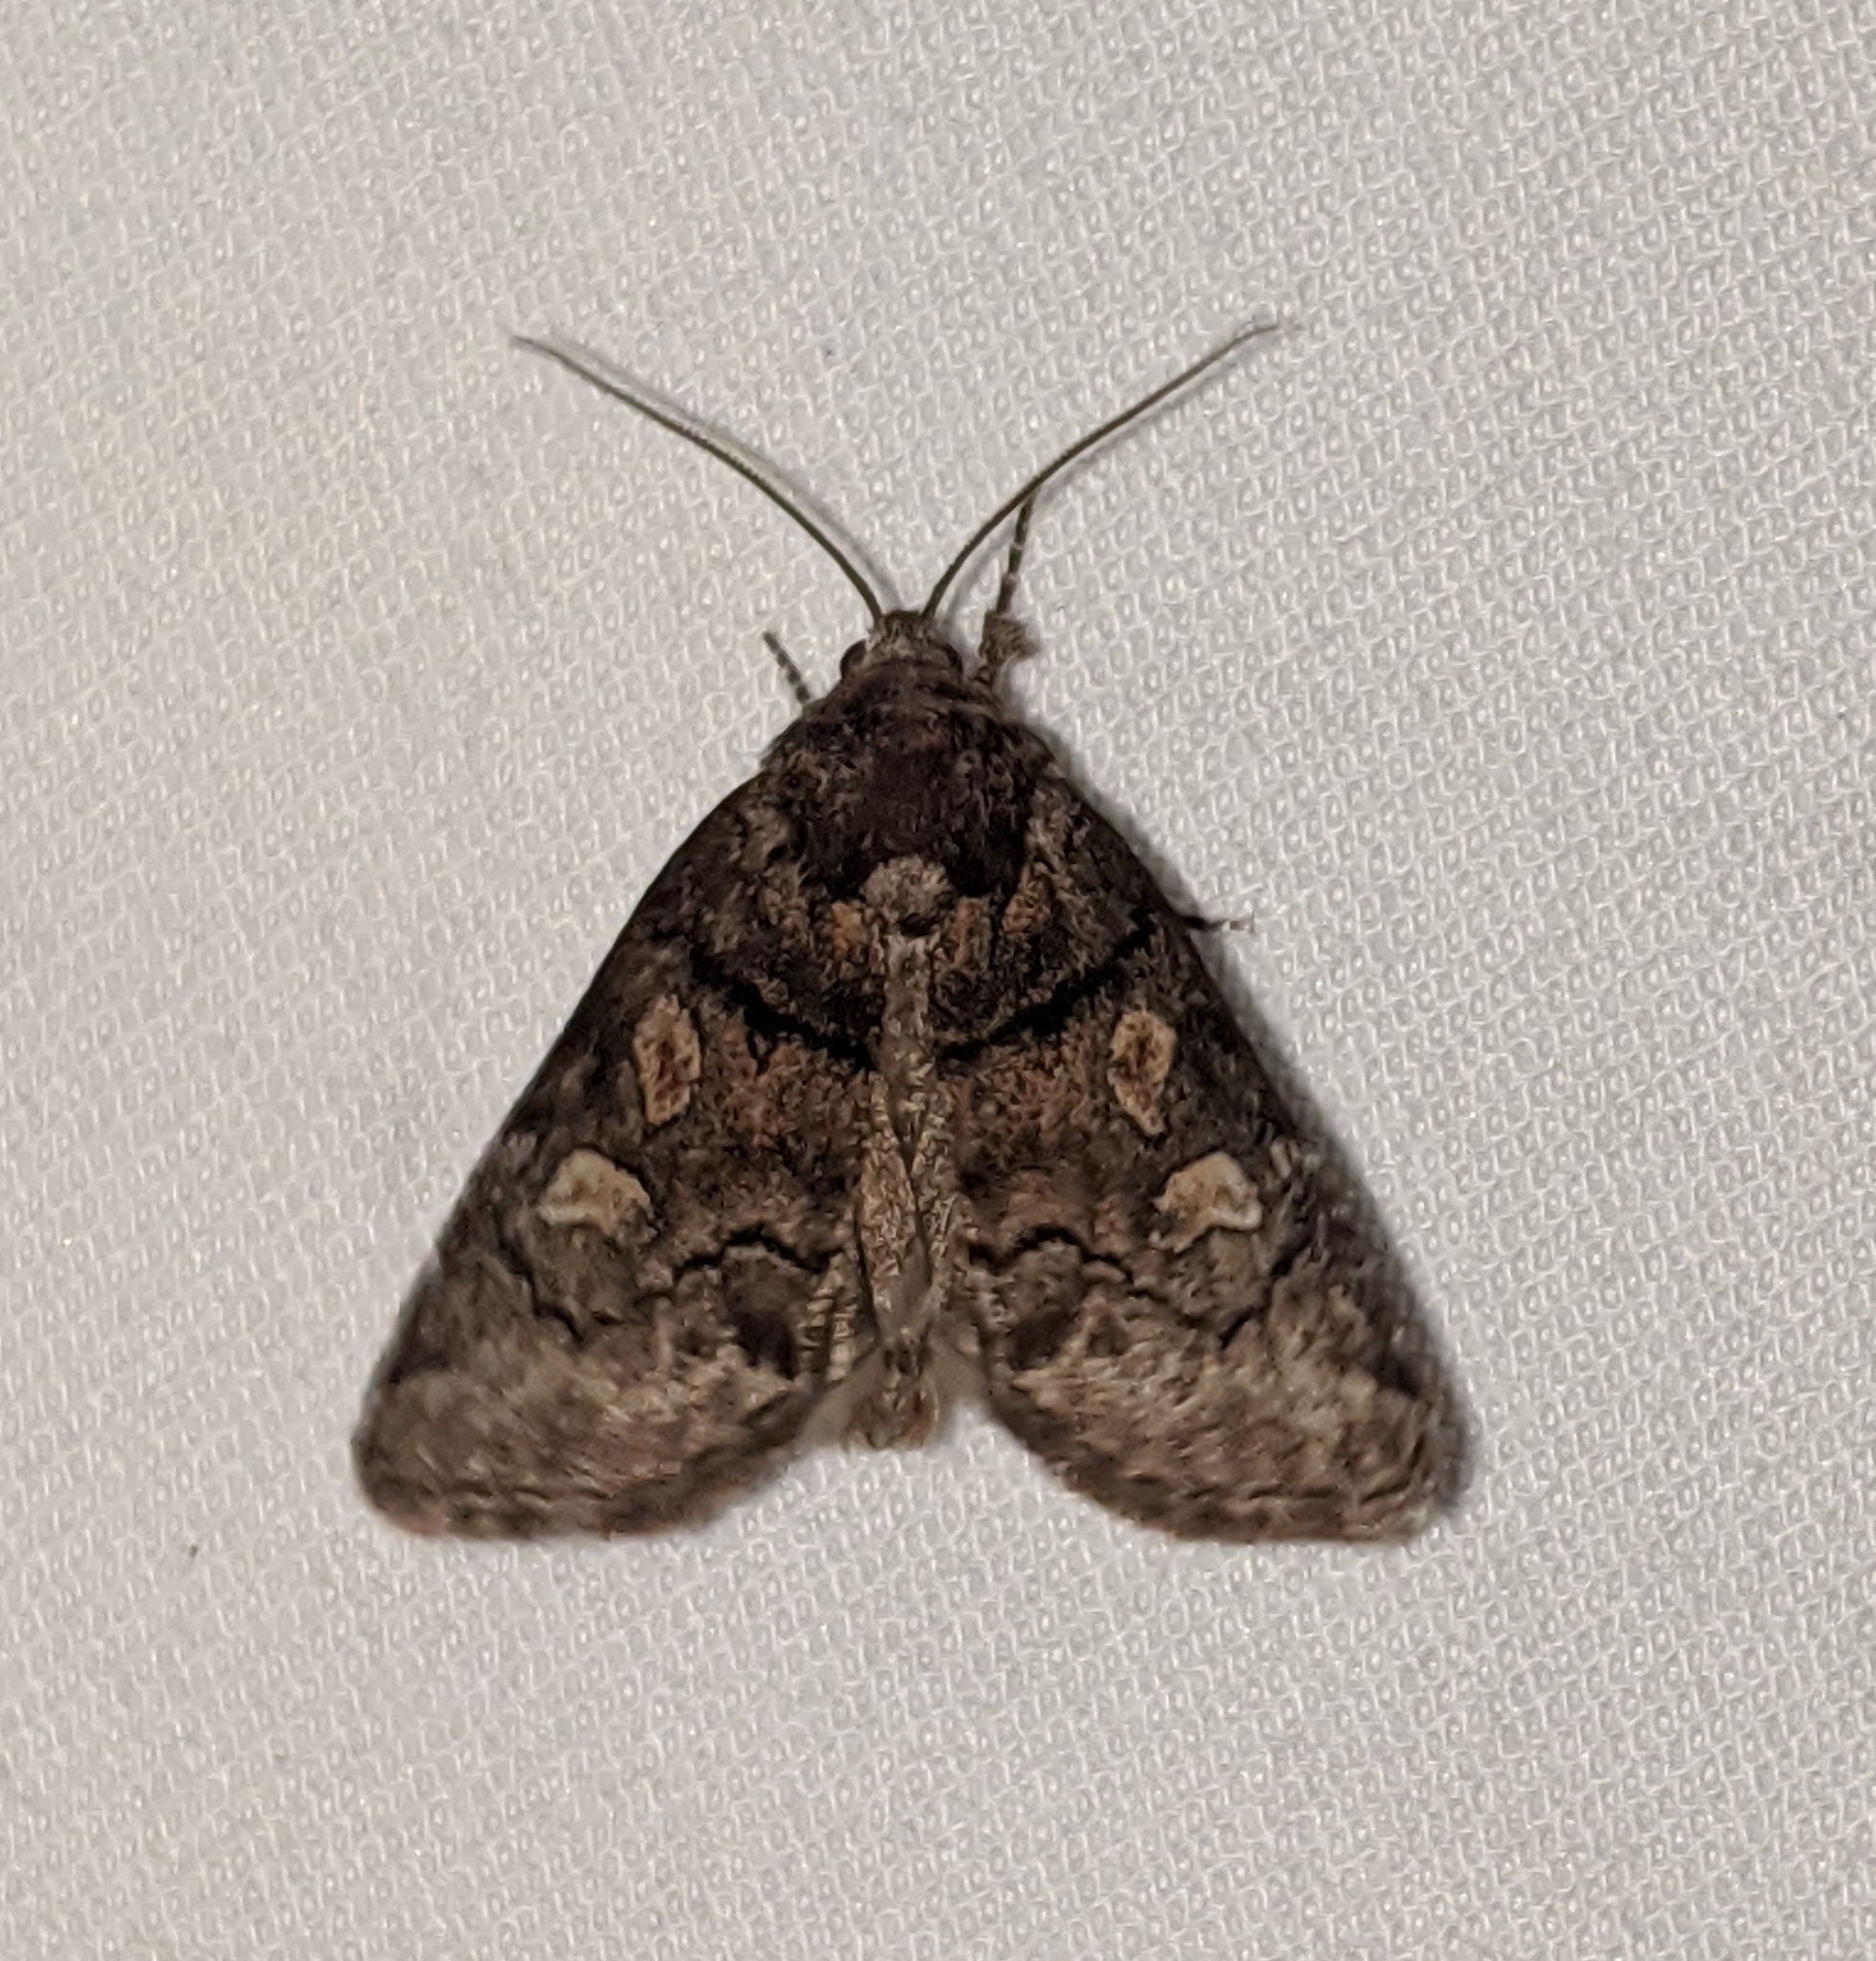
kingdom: Animalia
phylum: Arthropoda
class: Insecta
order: Lepidoptera
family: Noctuidae
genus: Cosmia
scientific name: Cosmia praeacuta
